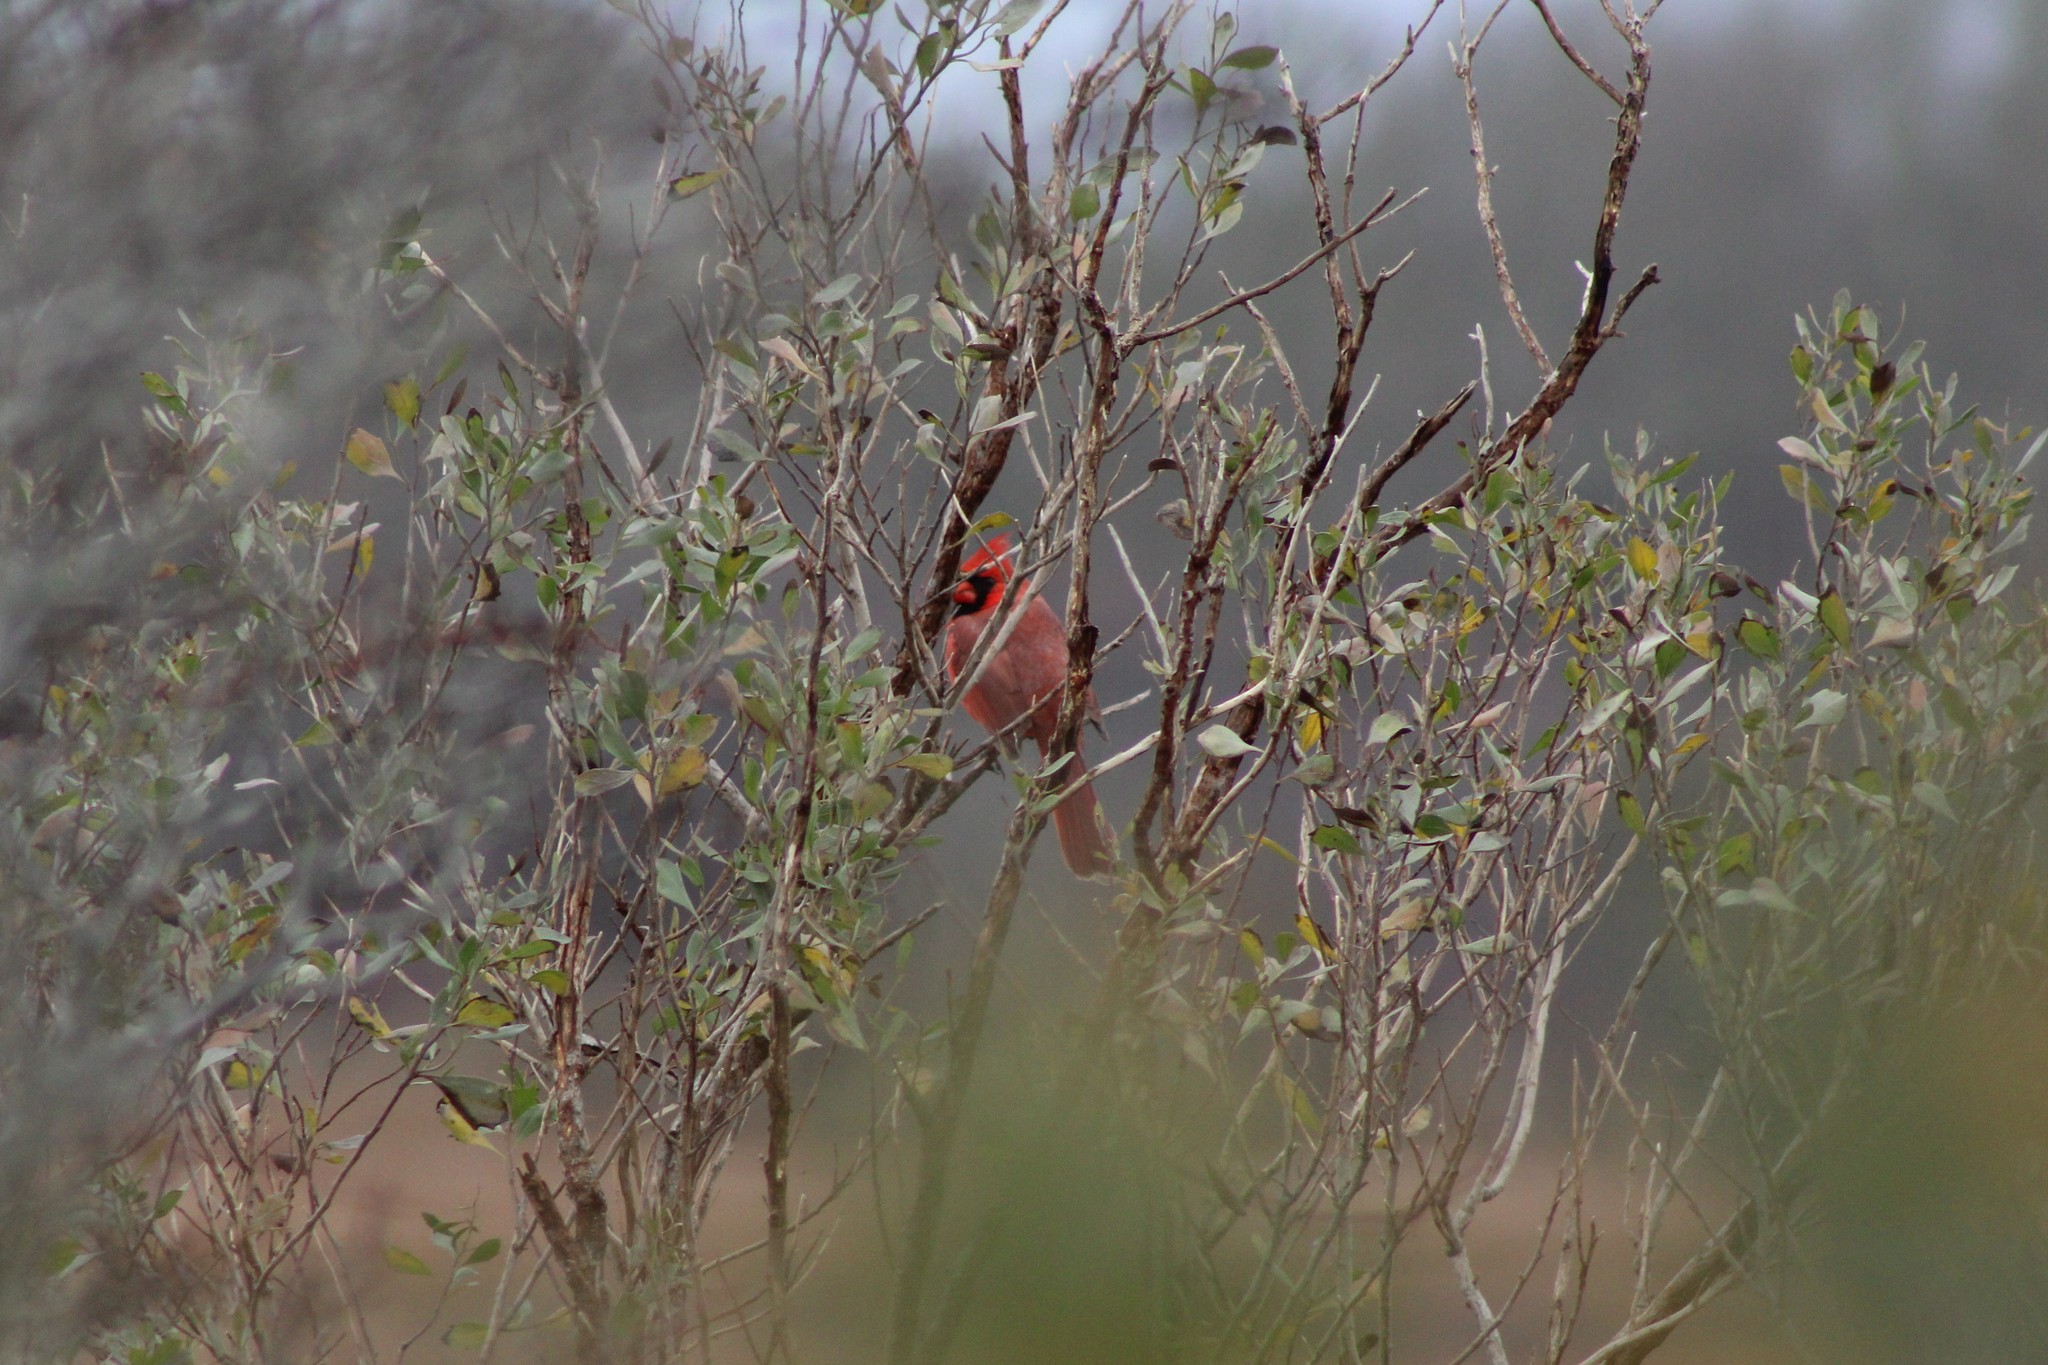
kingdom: Animalia
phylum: Chordata
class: Aves
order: Passeriformes
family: Cardinalidae
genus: Cardinalis
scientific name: Cardinalis cardinalis
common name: Northern cardinal
